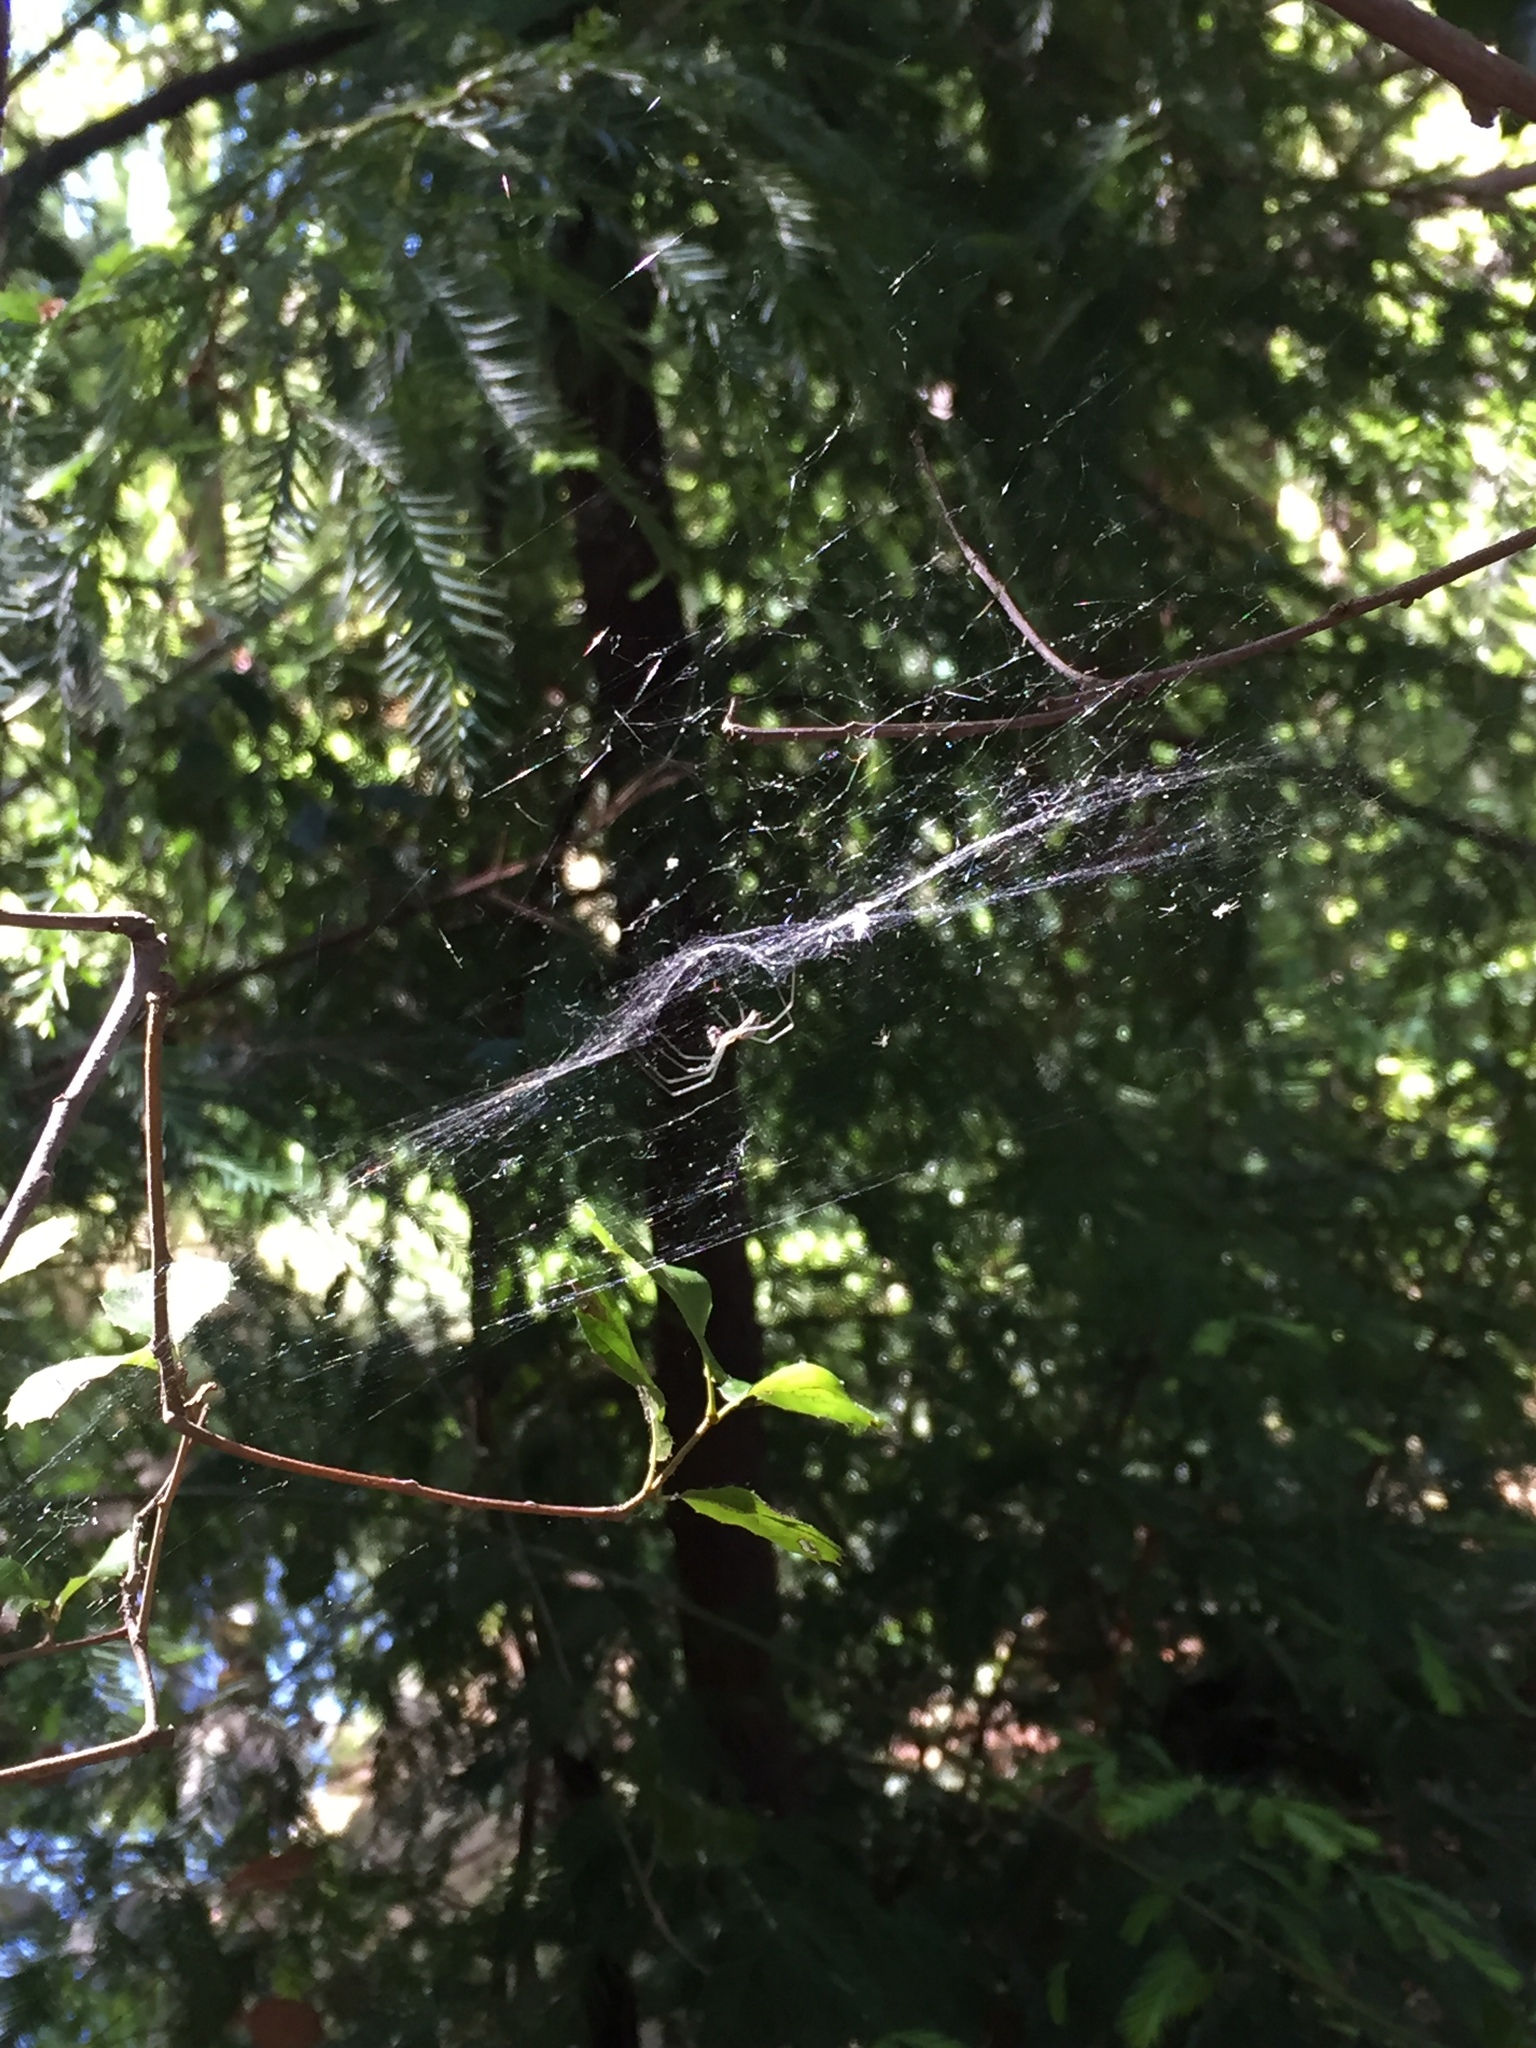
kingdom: Animalia
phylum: Arthropoda
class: Arachnida
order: Araneae
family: Tetragnathidae
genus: Leucauge
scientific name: Leucauge venusta
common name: Longjawed orb weavers
